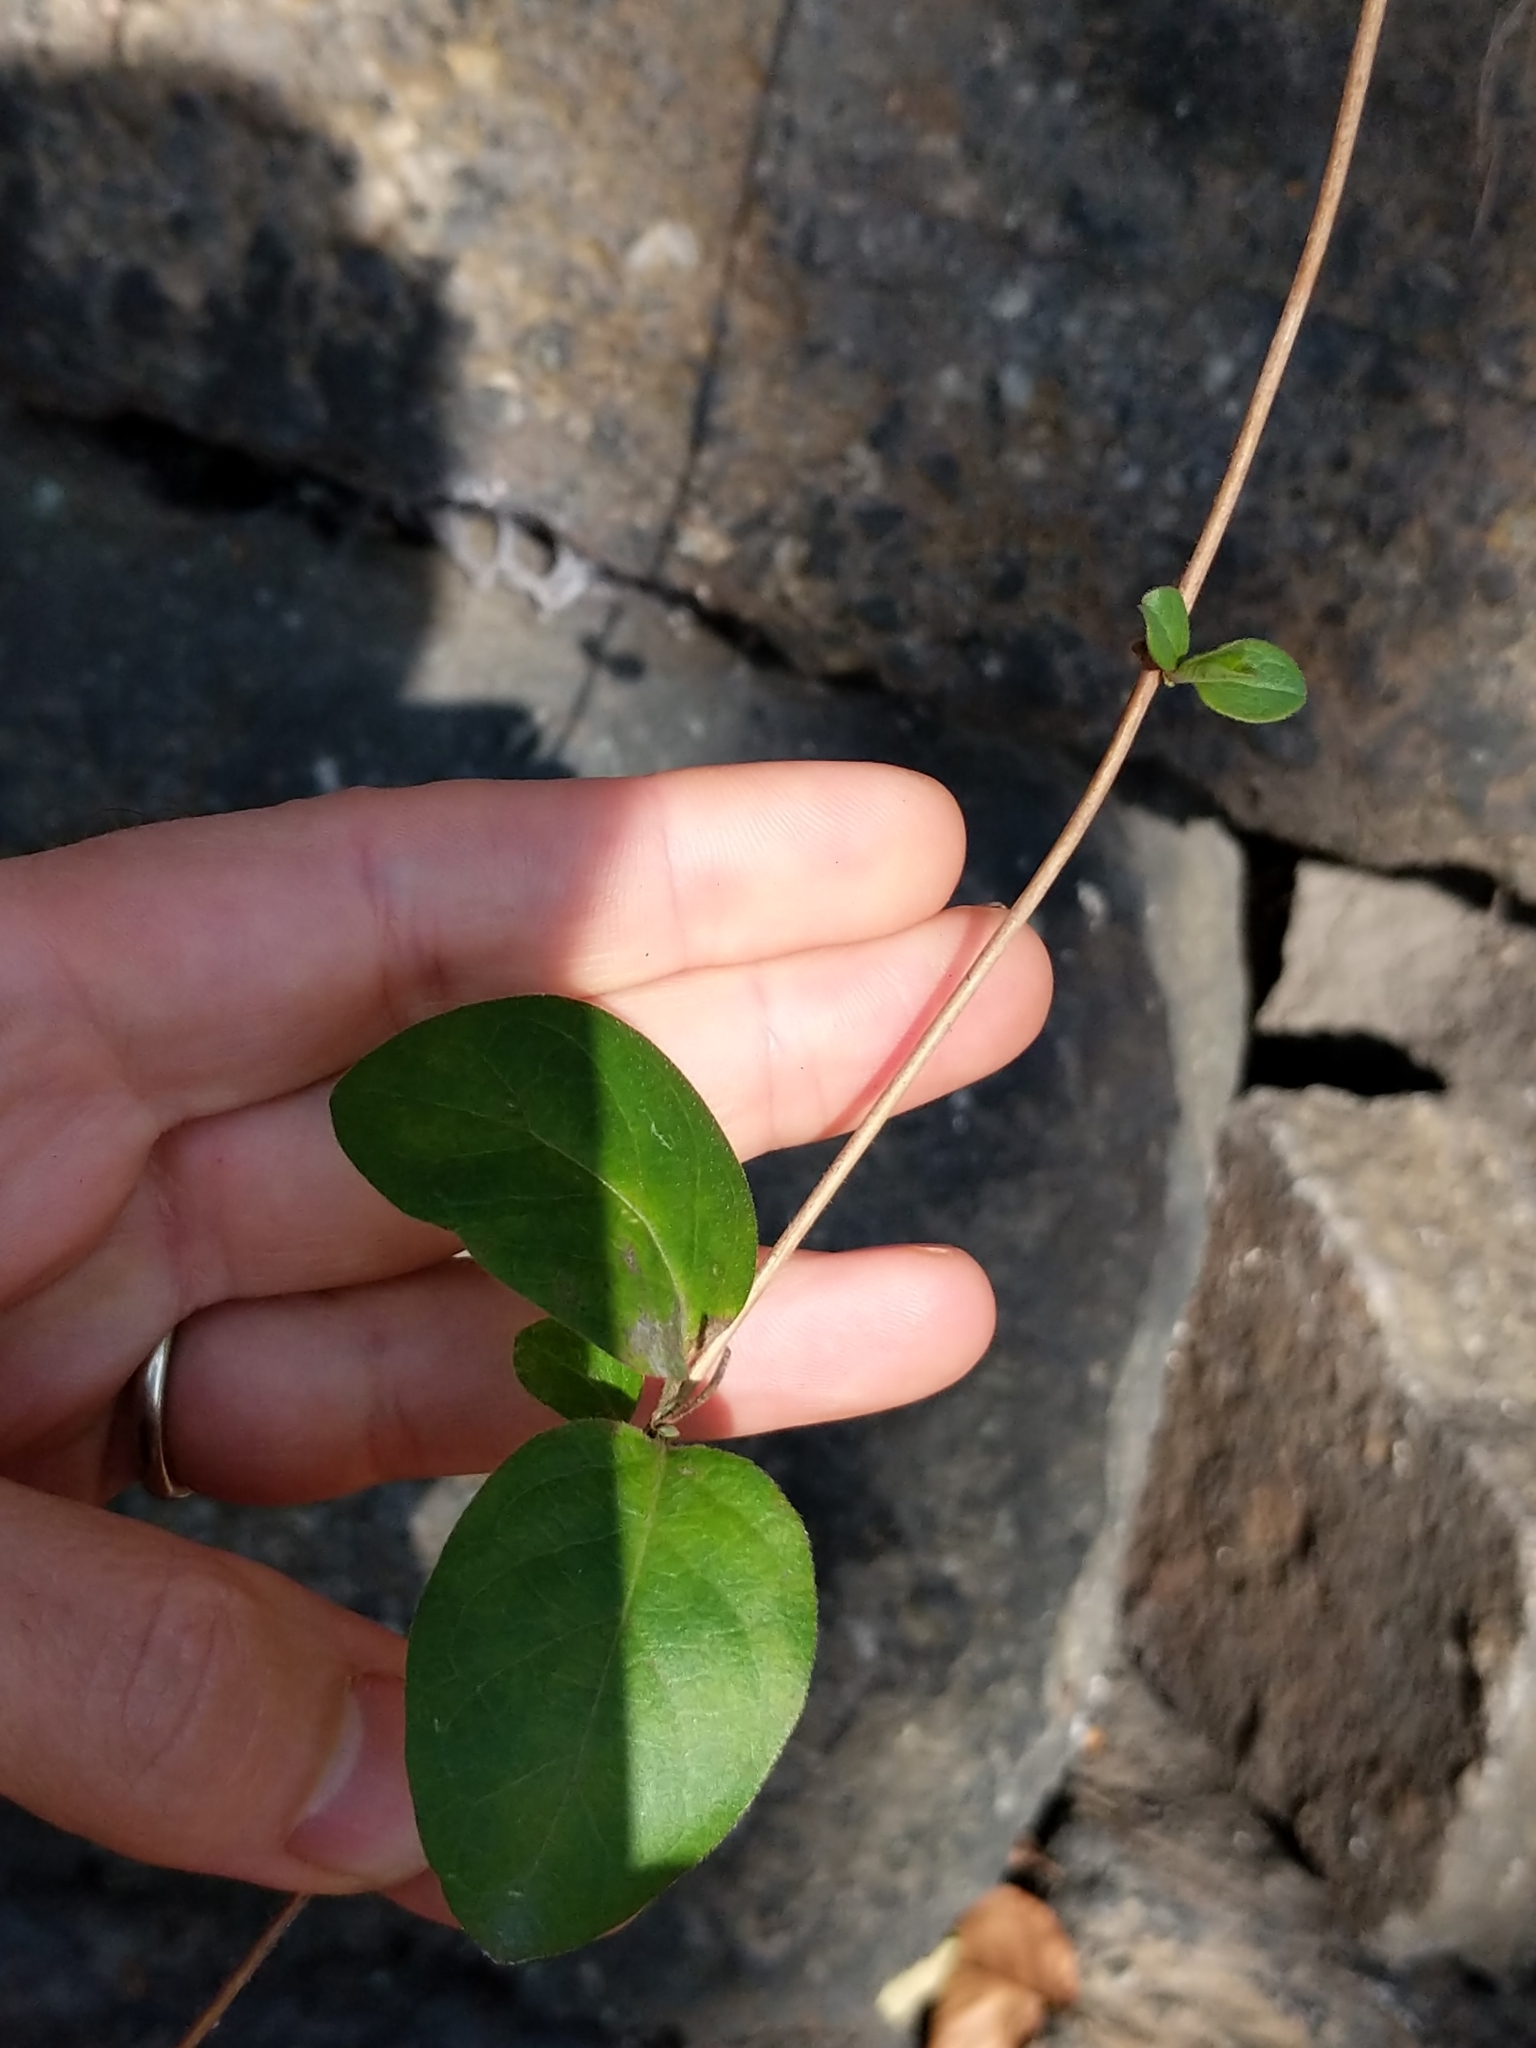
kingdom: Plantae
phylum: Tracheophyta
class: Magnoliopsida
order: Dipsacales
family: Caprifoliaceae
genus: Lonicera
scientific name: Lonicera japonica
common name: Japanese honeysuckle
